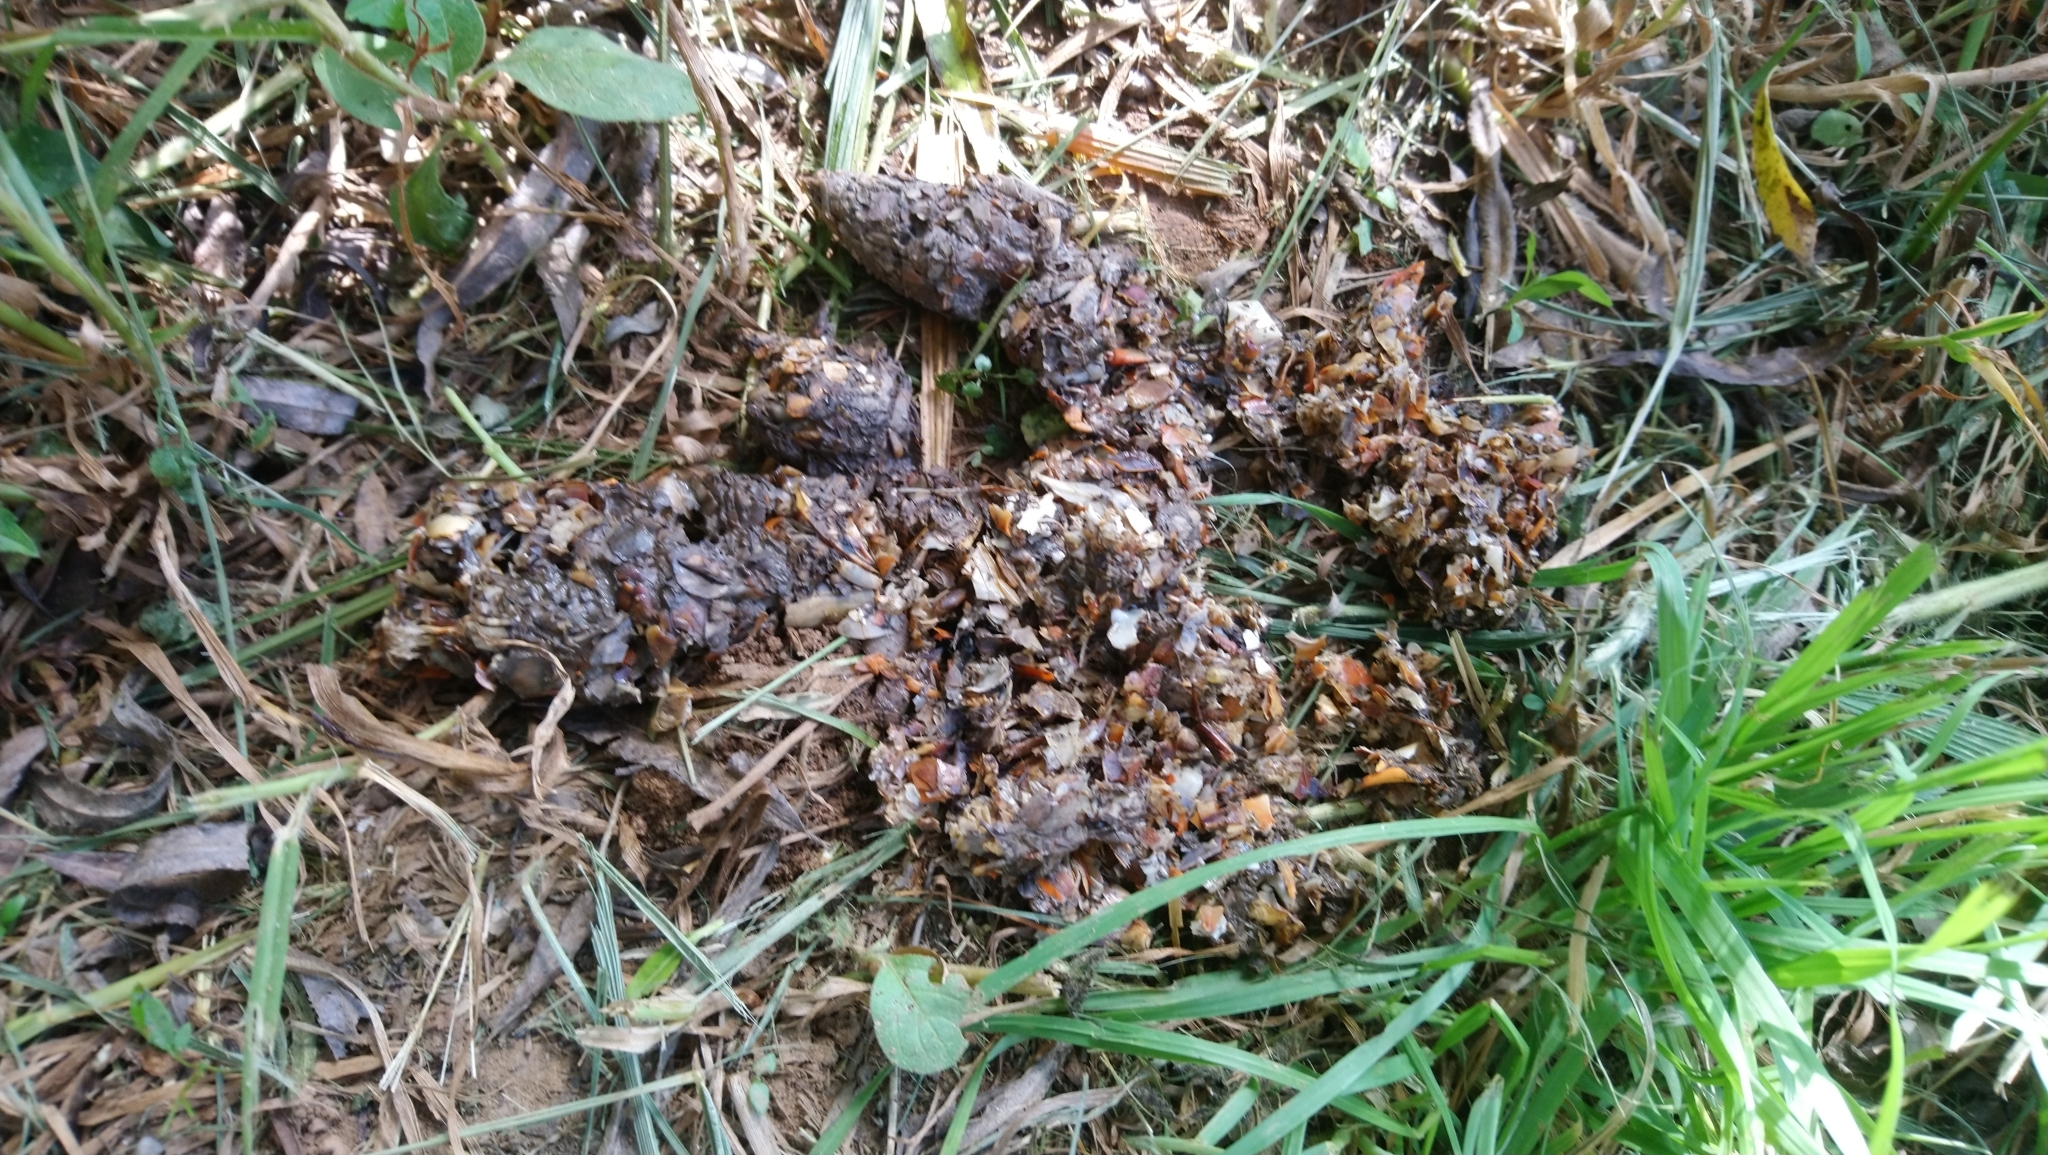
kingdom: Animalia
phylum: Chordata
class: Mammalia
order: Carnivora
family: Mustelidae
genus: Aonyx
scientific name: Aonyx capensis
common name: African clawless otter
